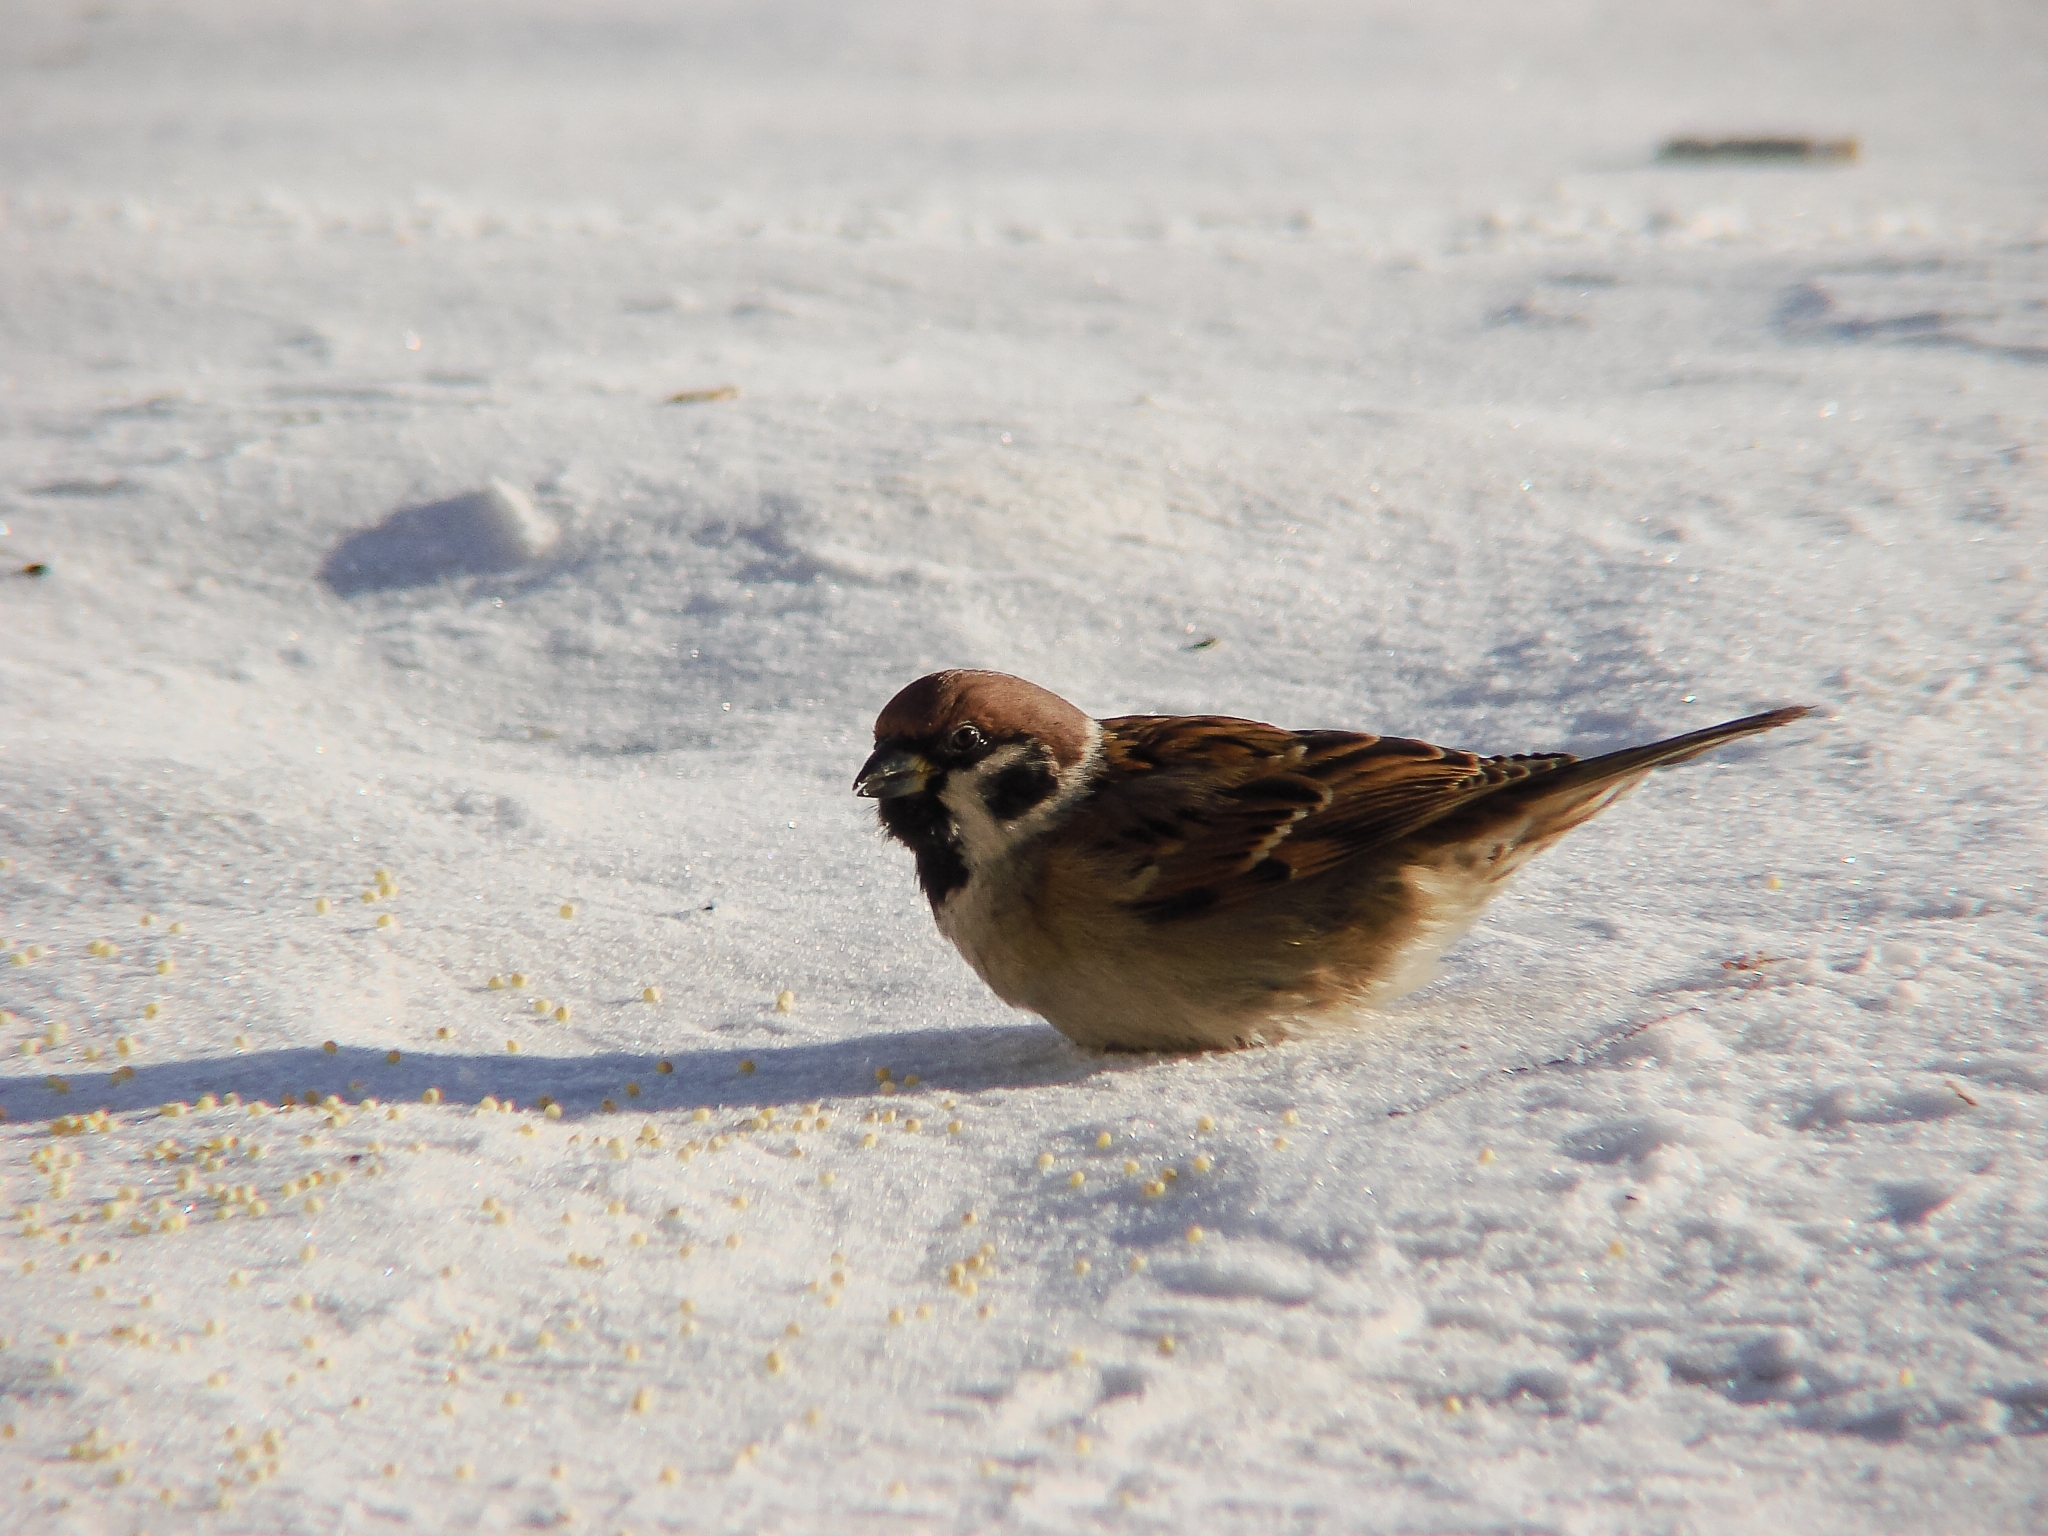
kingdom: Animalia
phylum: Chordata
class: Aves
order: Passeriformes
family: Passeridae
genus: Passer
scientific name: Passer montanus
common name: Eurasian tree sparrow
